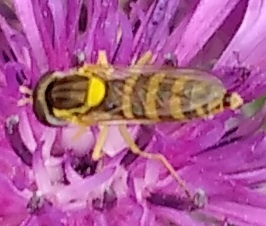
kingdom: Animalia
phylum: Arthropoda
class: Insecta
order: Diptera
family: Syrphidae
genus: Sphaerophoria
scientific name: Sphaerophoria
